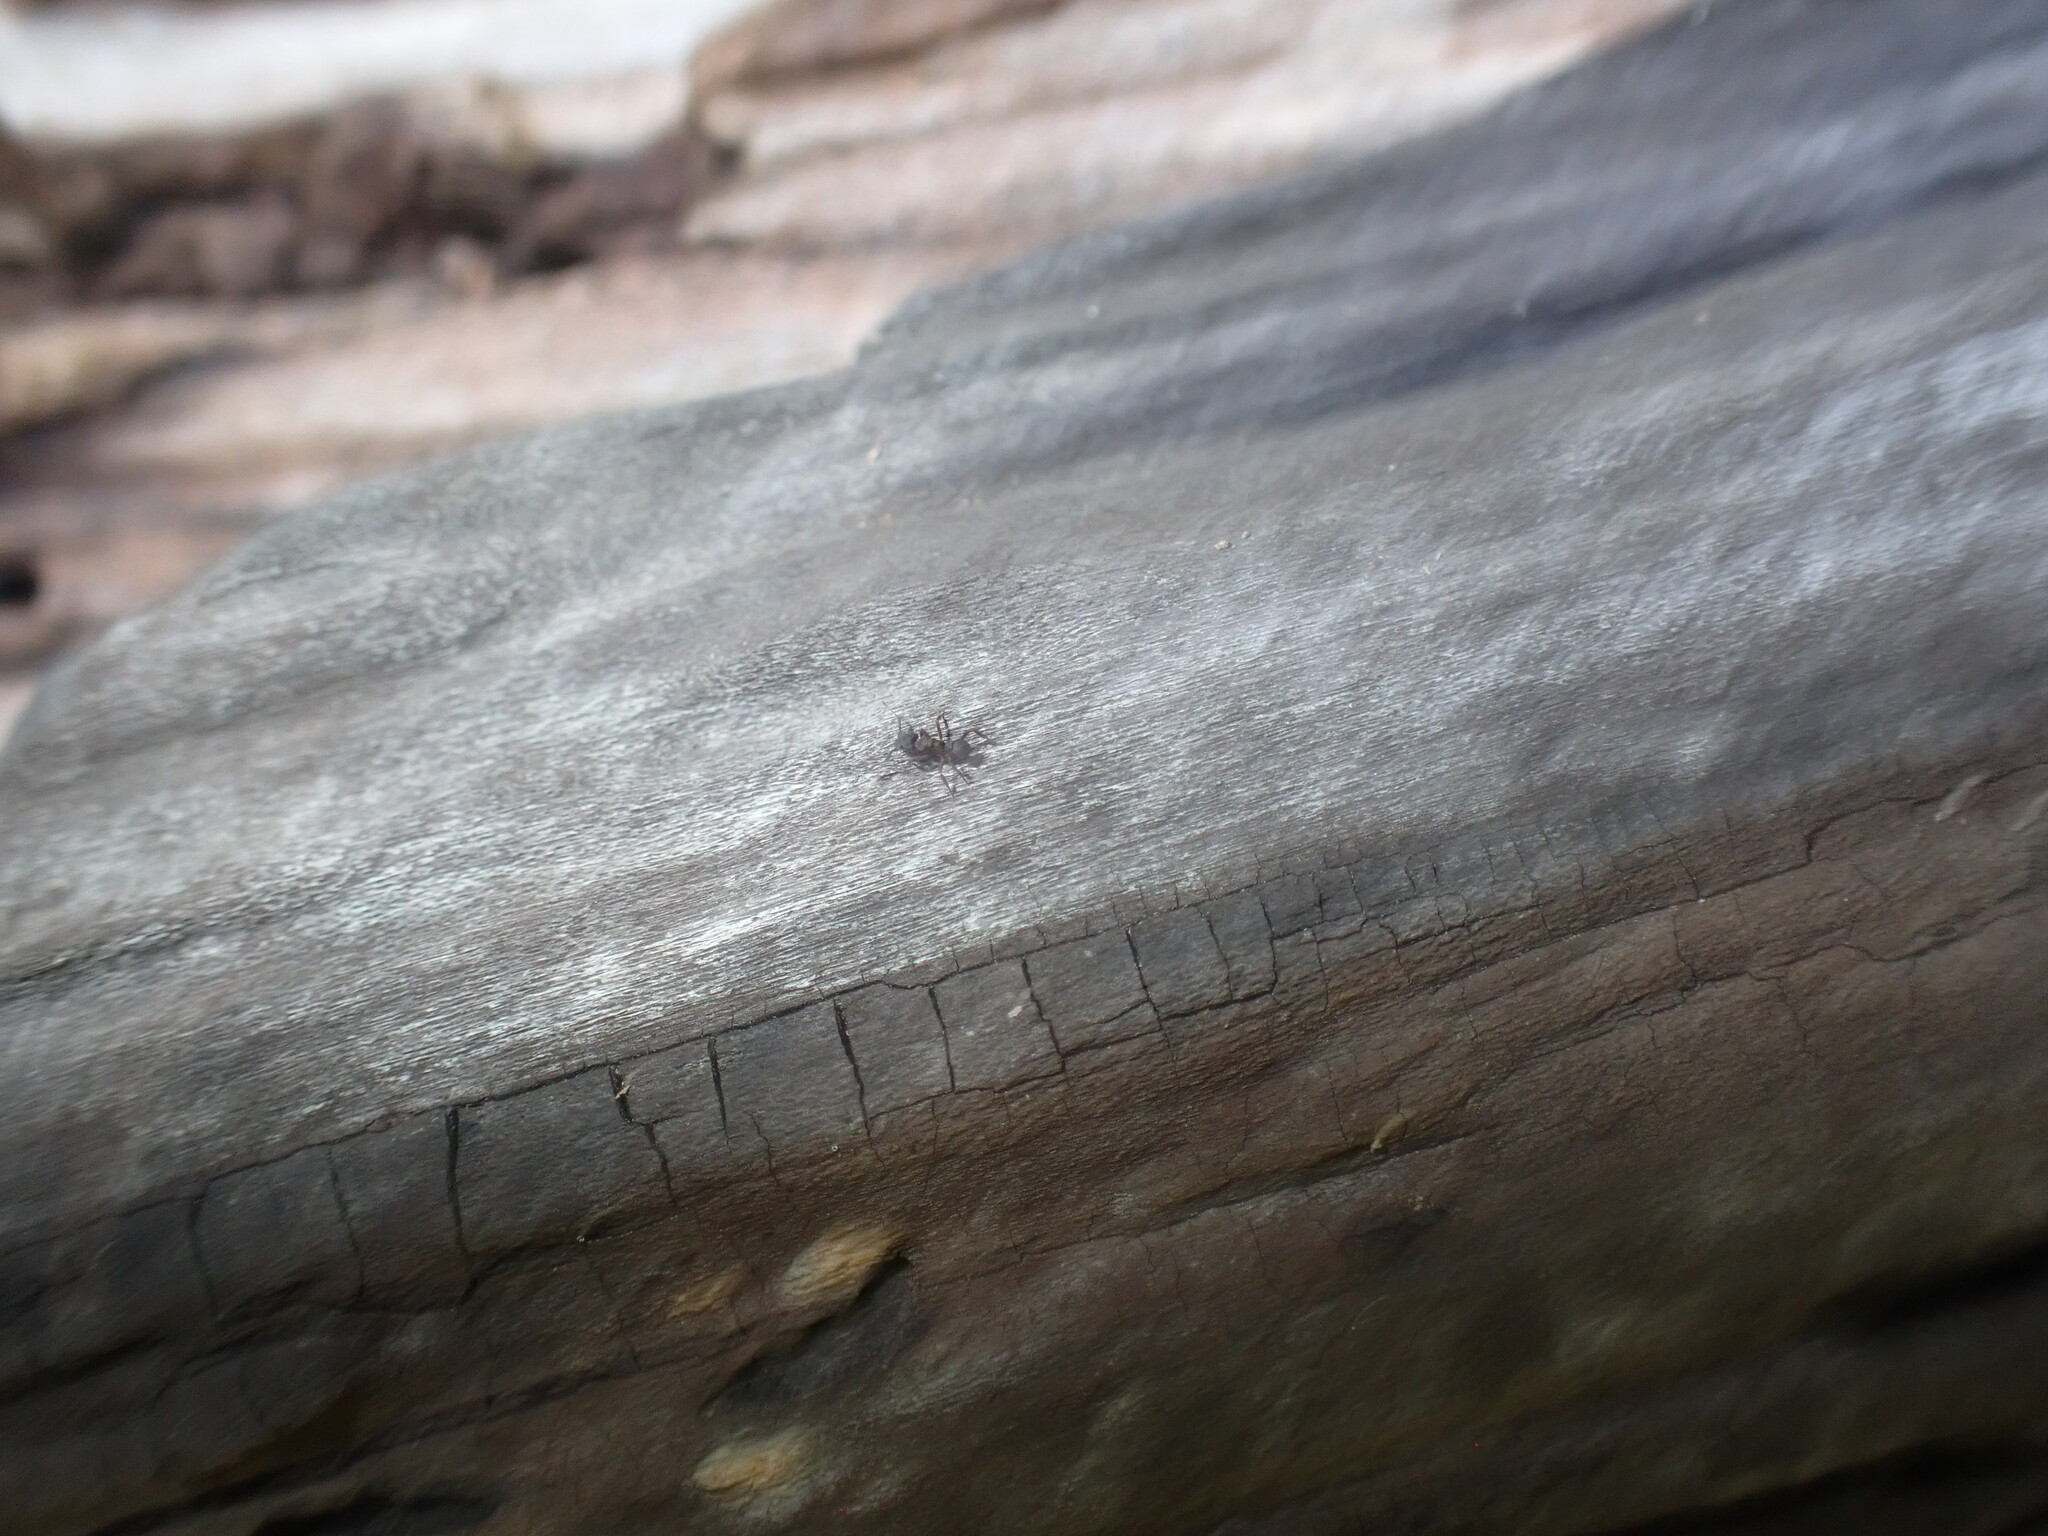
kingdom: Animalia
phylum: Arthropoda
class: Insecta
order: Hymenoptera
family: Formicidae
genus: Cyphomyrmex
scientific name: Cyphomyrmex rimosus
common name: Rimose fungus ant
